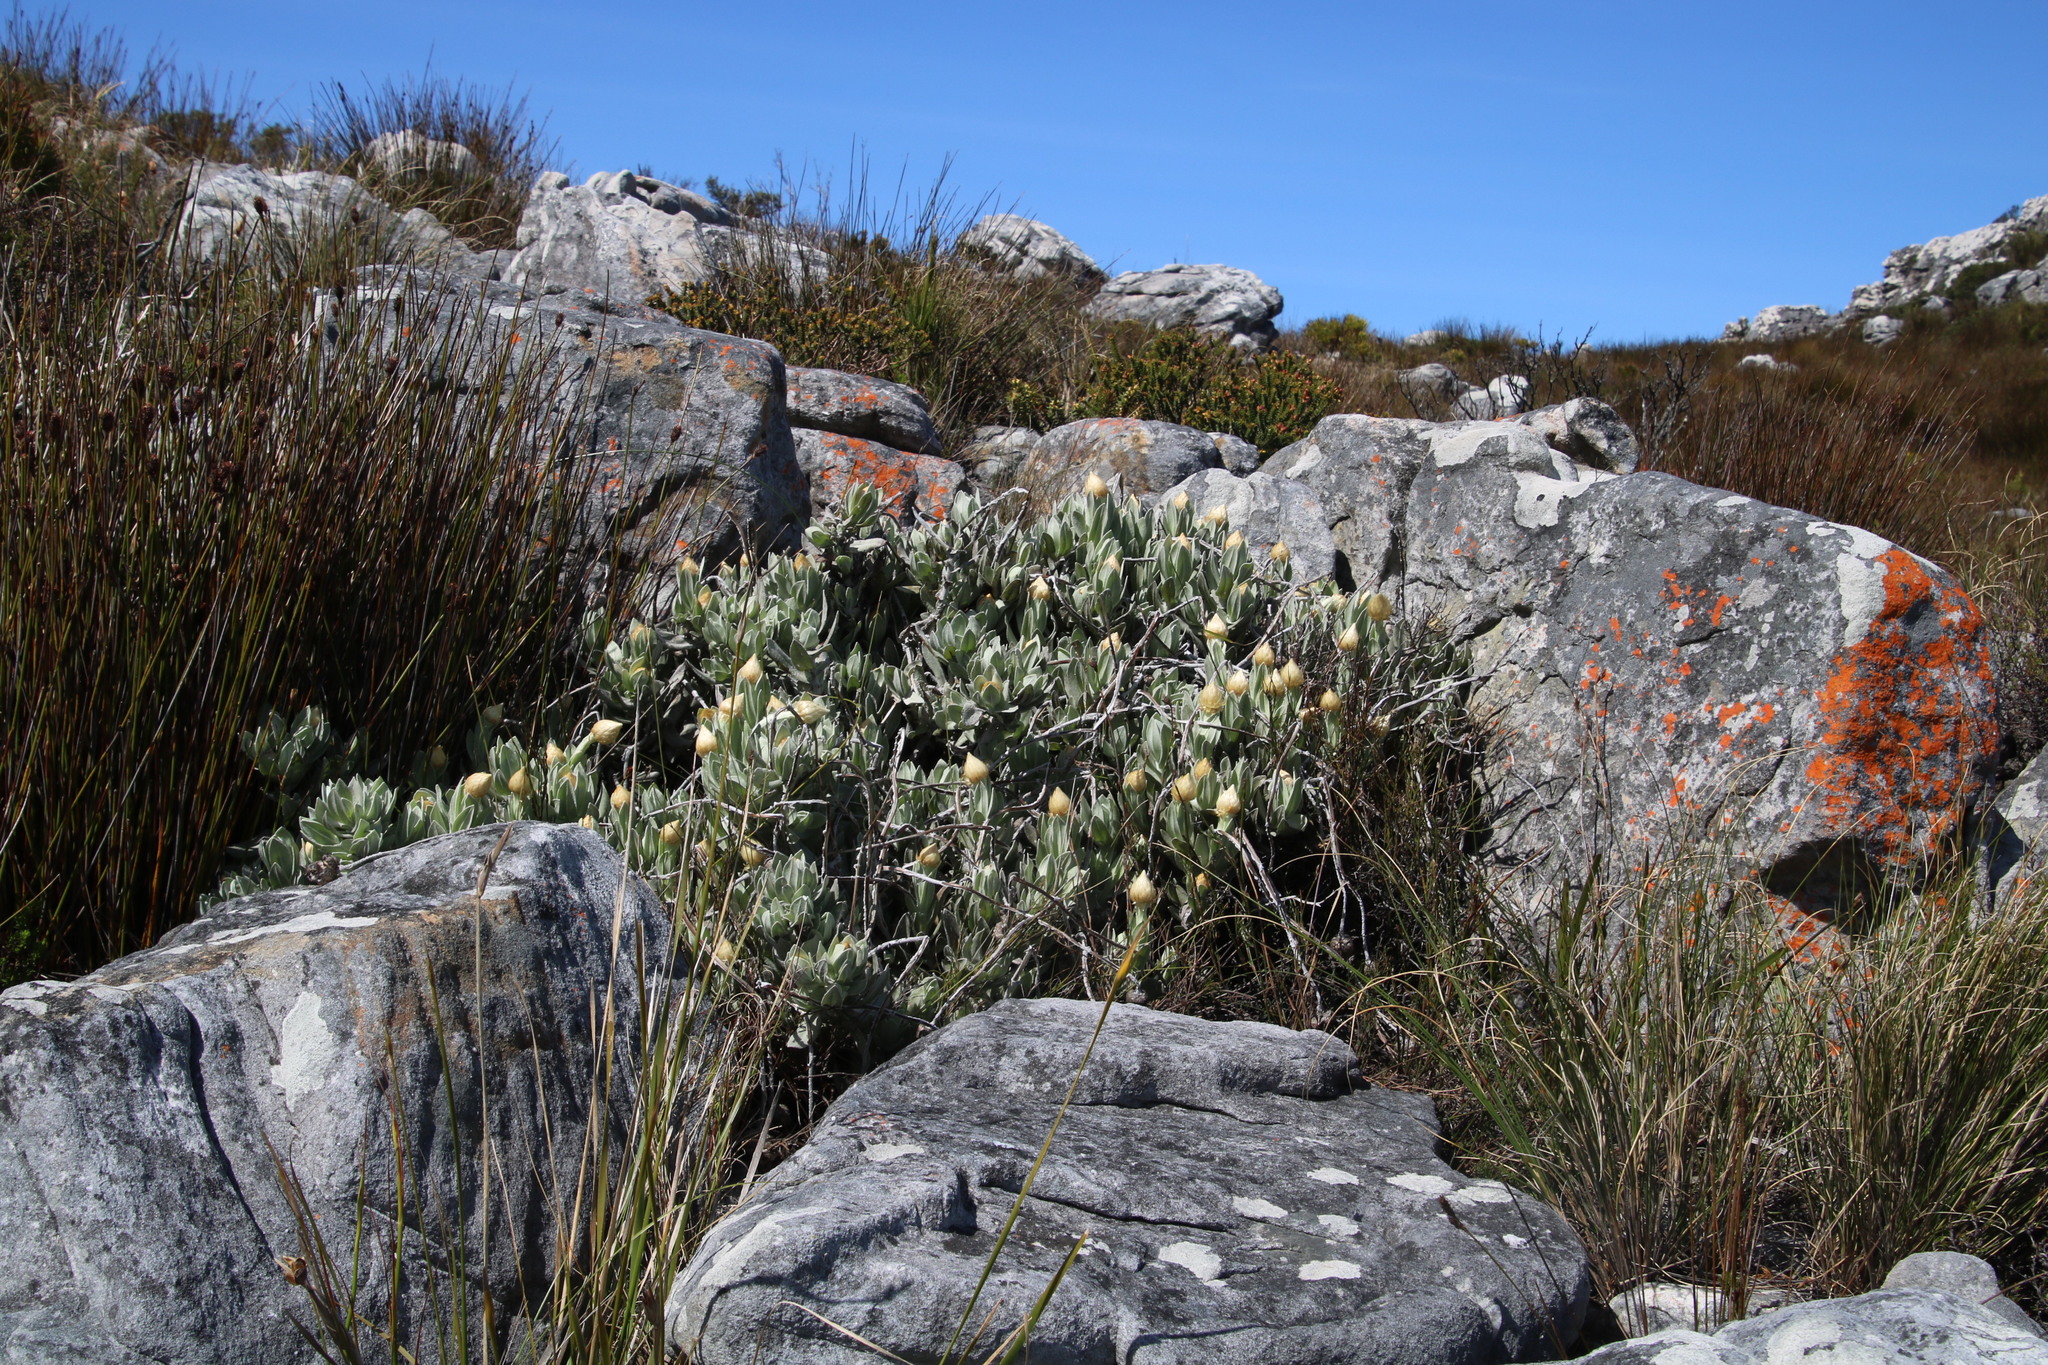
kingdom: Plantae
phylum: Tracheophyta
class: Magnoliopsida
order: Asterales
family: Asteraceae
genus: Syncarpha
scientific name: Syncarpha speciosissima
